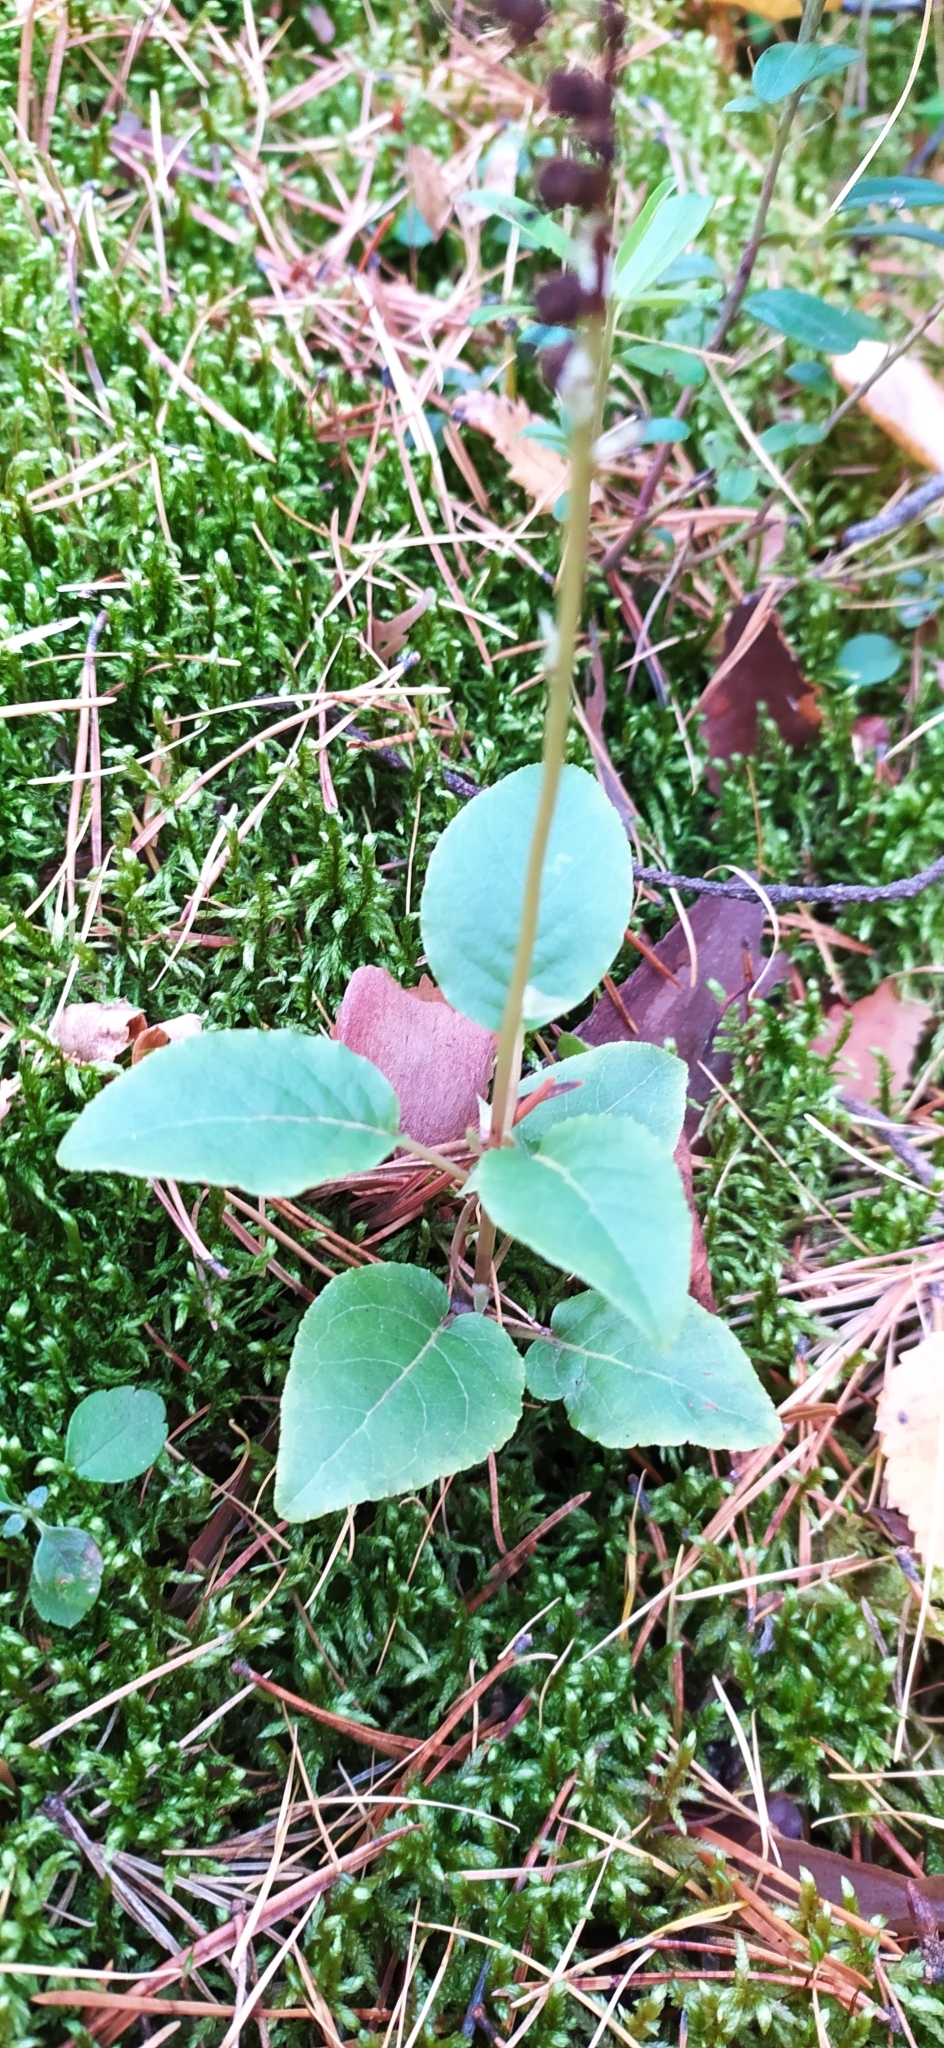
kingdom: Plantae
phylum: Tracheophyta
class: Magnoliopsida
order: Ericales
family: Ericaceae
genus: Orthilia
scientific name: Orthilia secunda
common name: One-sided orthilia
